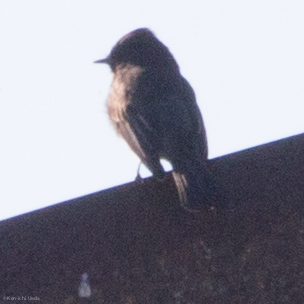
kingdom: Animalia
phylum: Chordata
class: Aves
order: Passeriformes
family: Tyrannidae
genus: Sayornis
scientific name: Sayornis nigricans
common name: Black phoebe
